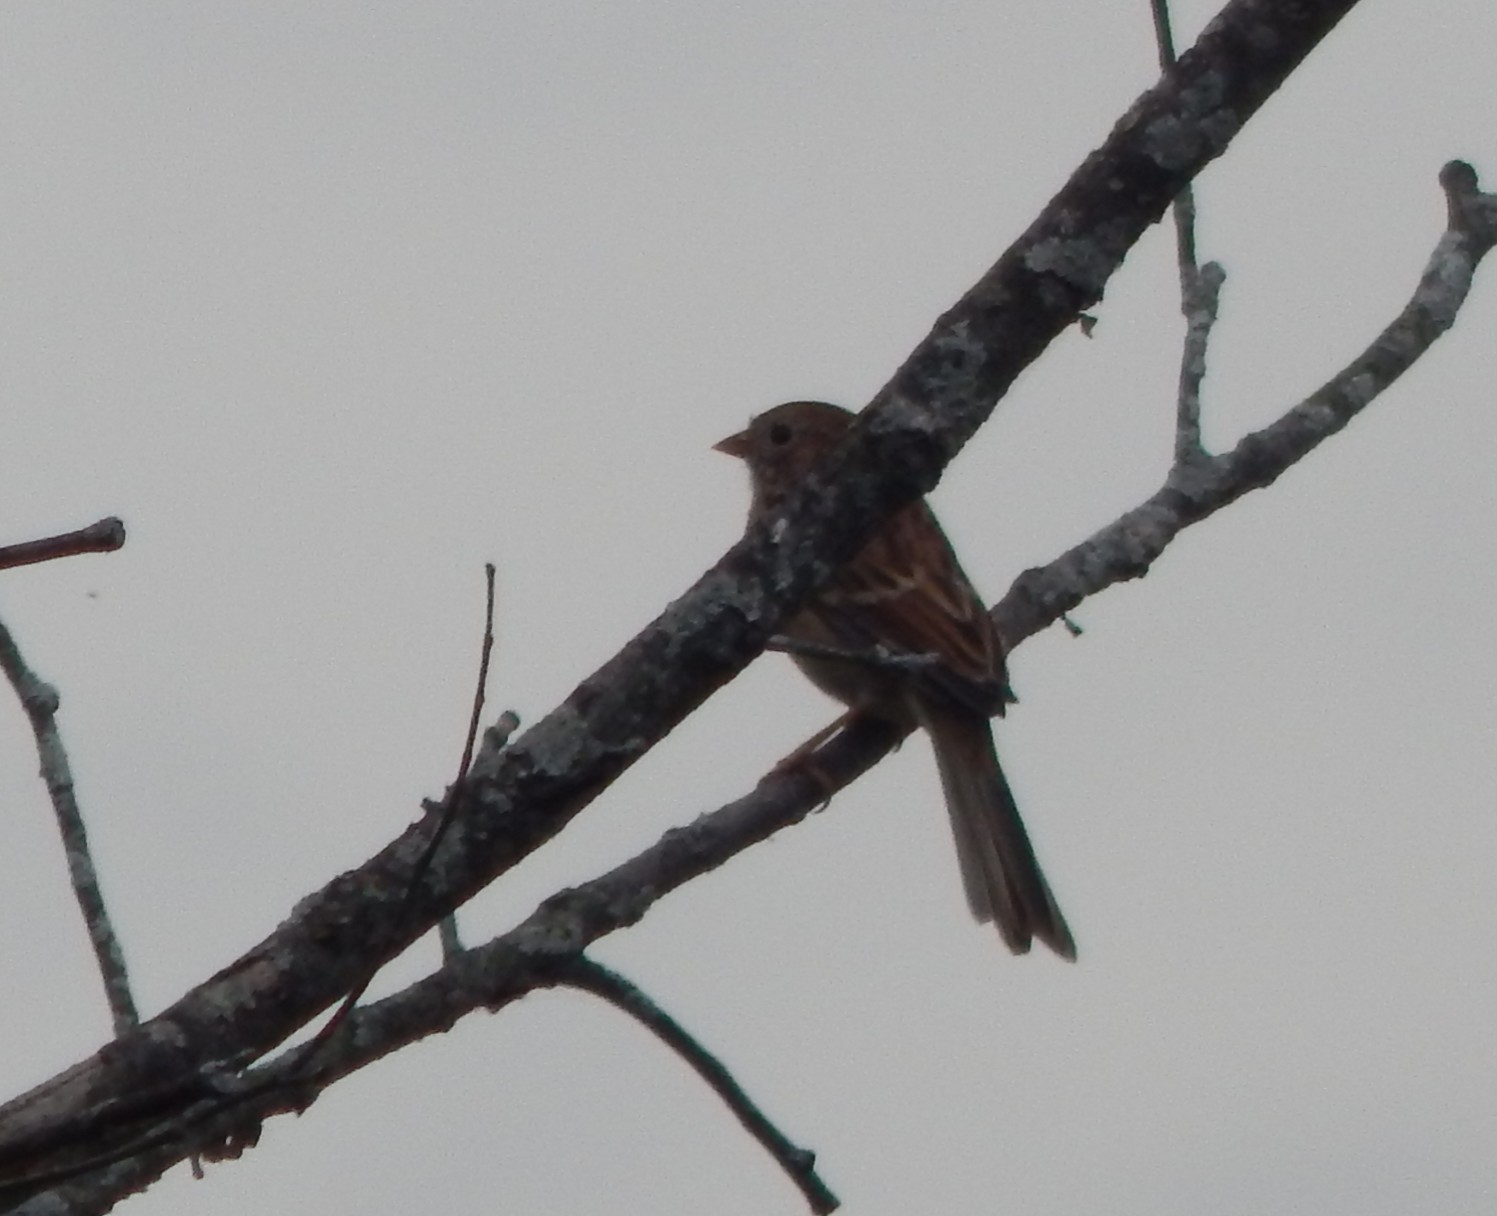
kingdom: Animalia
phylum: Chordata
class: Aves
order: Passeriformes
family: Passerellidae
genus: Spizella
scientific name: Spizella pusilla
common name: Field sparrow
